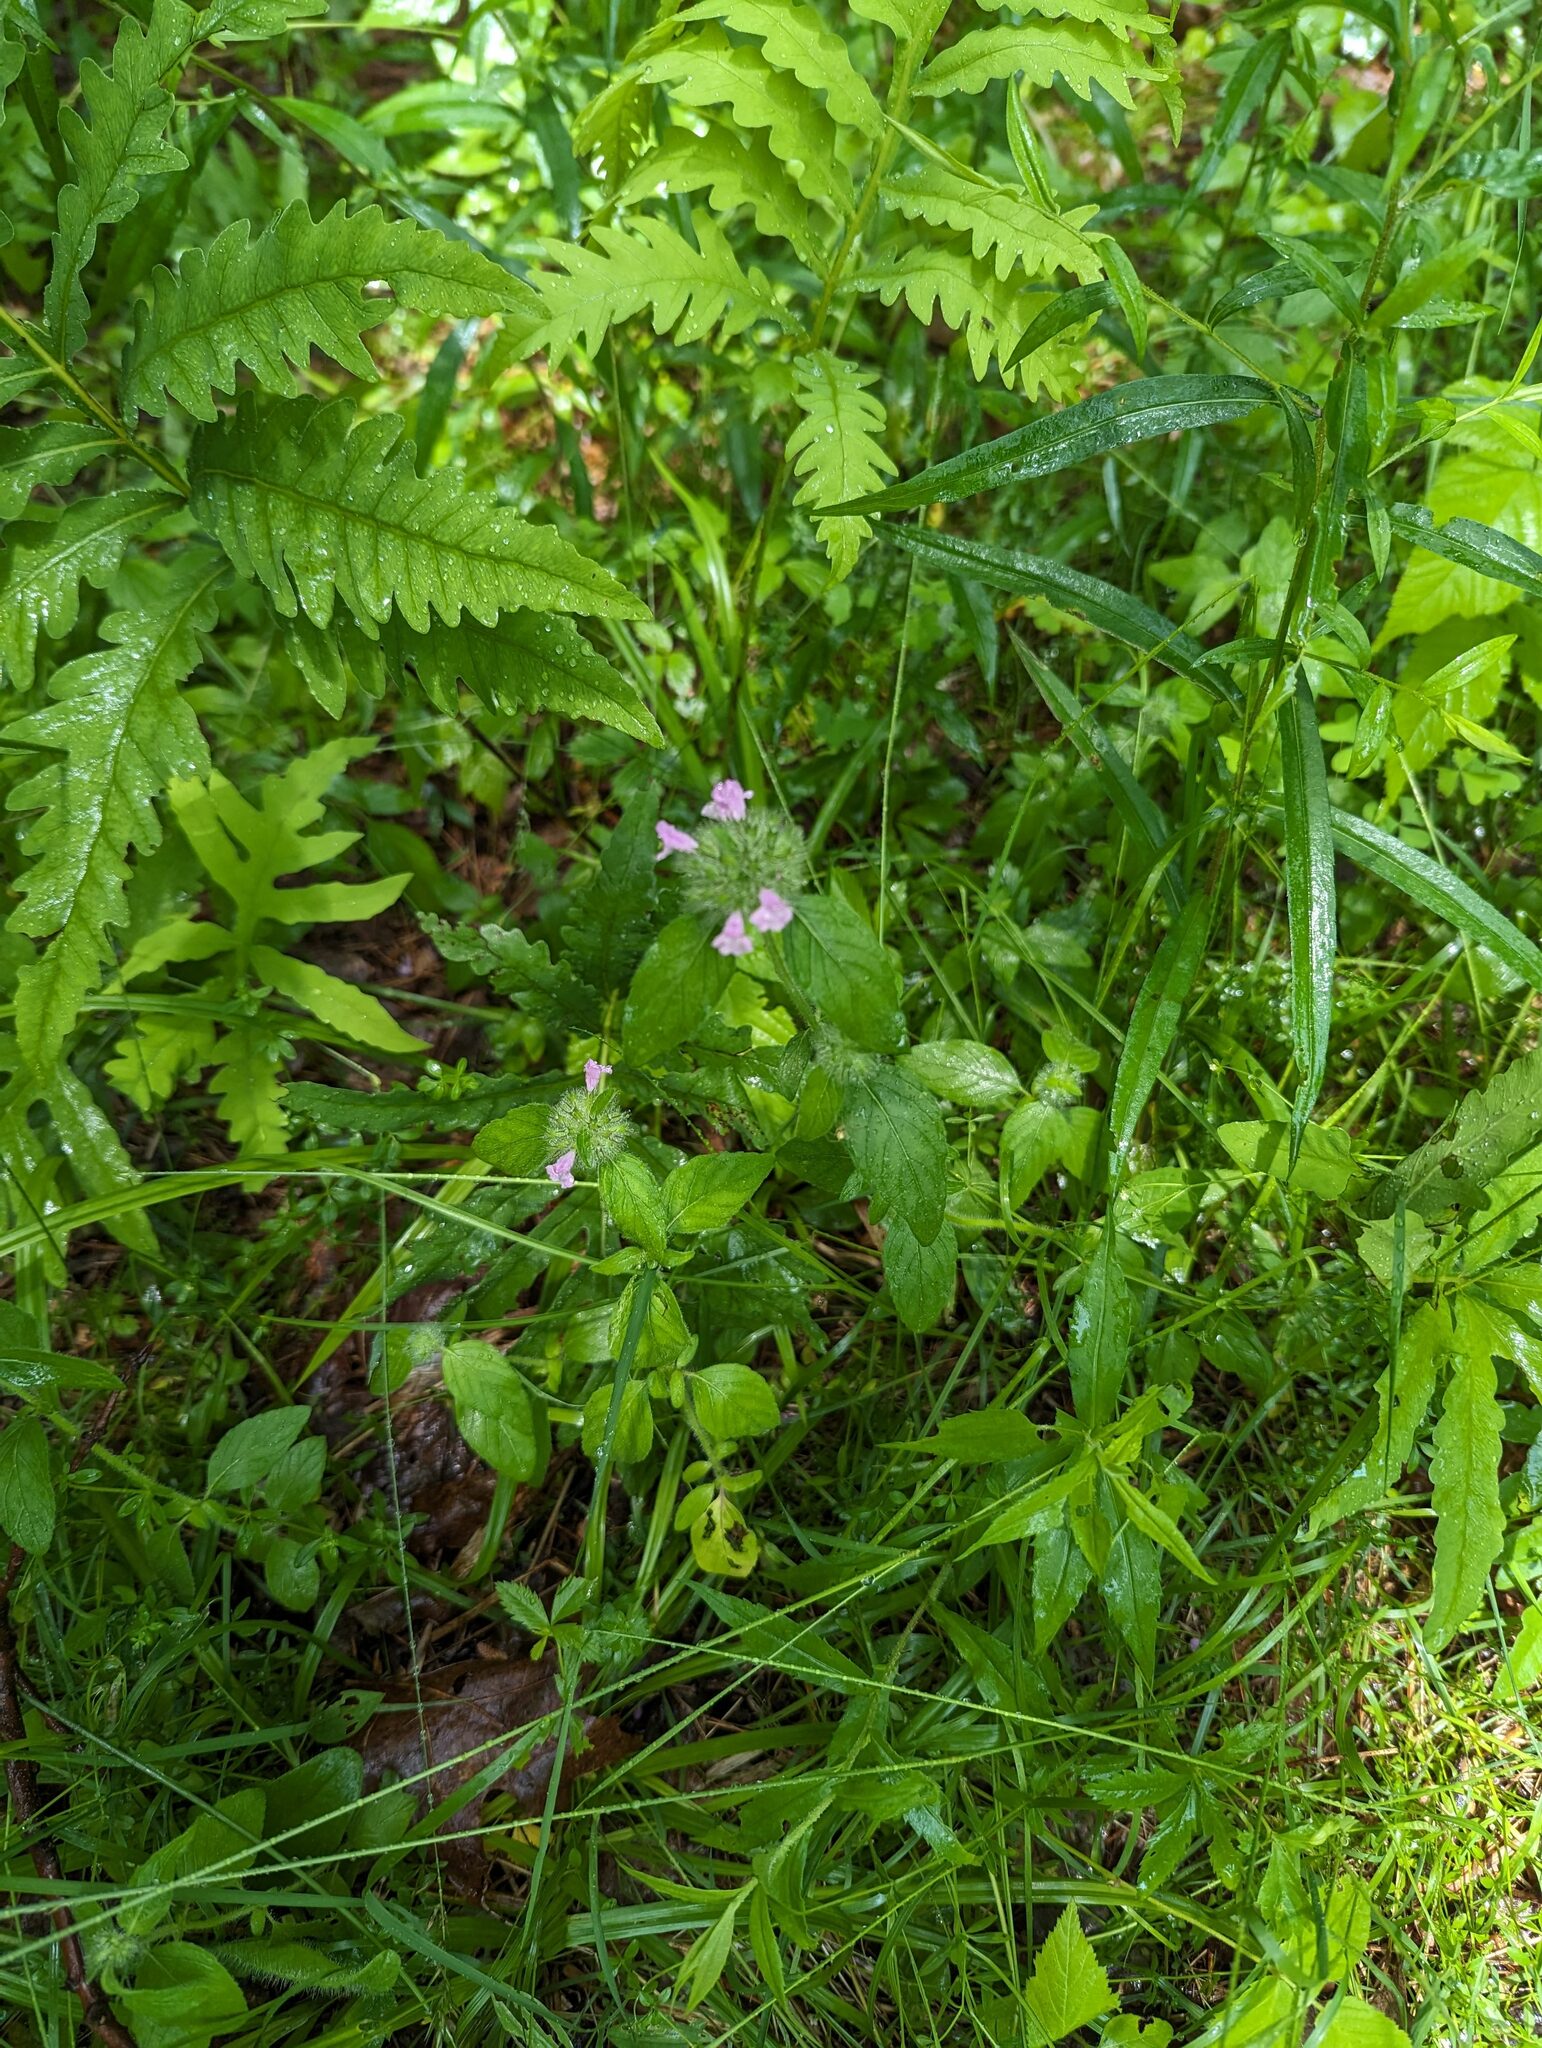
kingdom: Plantae
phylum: Tracheophyta
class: Magnoliopsida
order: Lamiales
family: Lamiaceae
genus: Clinopodium
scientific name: Clinopodium vulgare
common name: Wild basil
